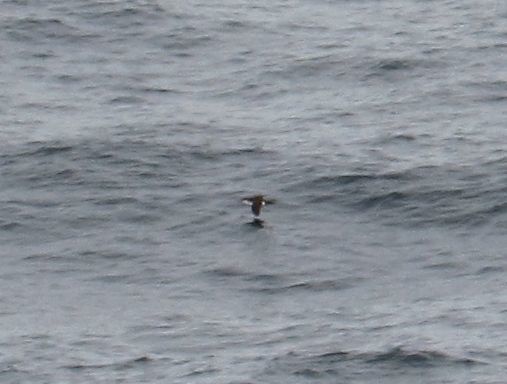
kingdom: Animalia
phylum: Chordata
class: Aves
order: Procellariiformes
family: Procellariidae
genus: Puffinus
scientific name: Puffinus puffinus
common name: Manx shearwater
